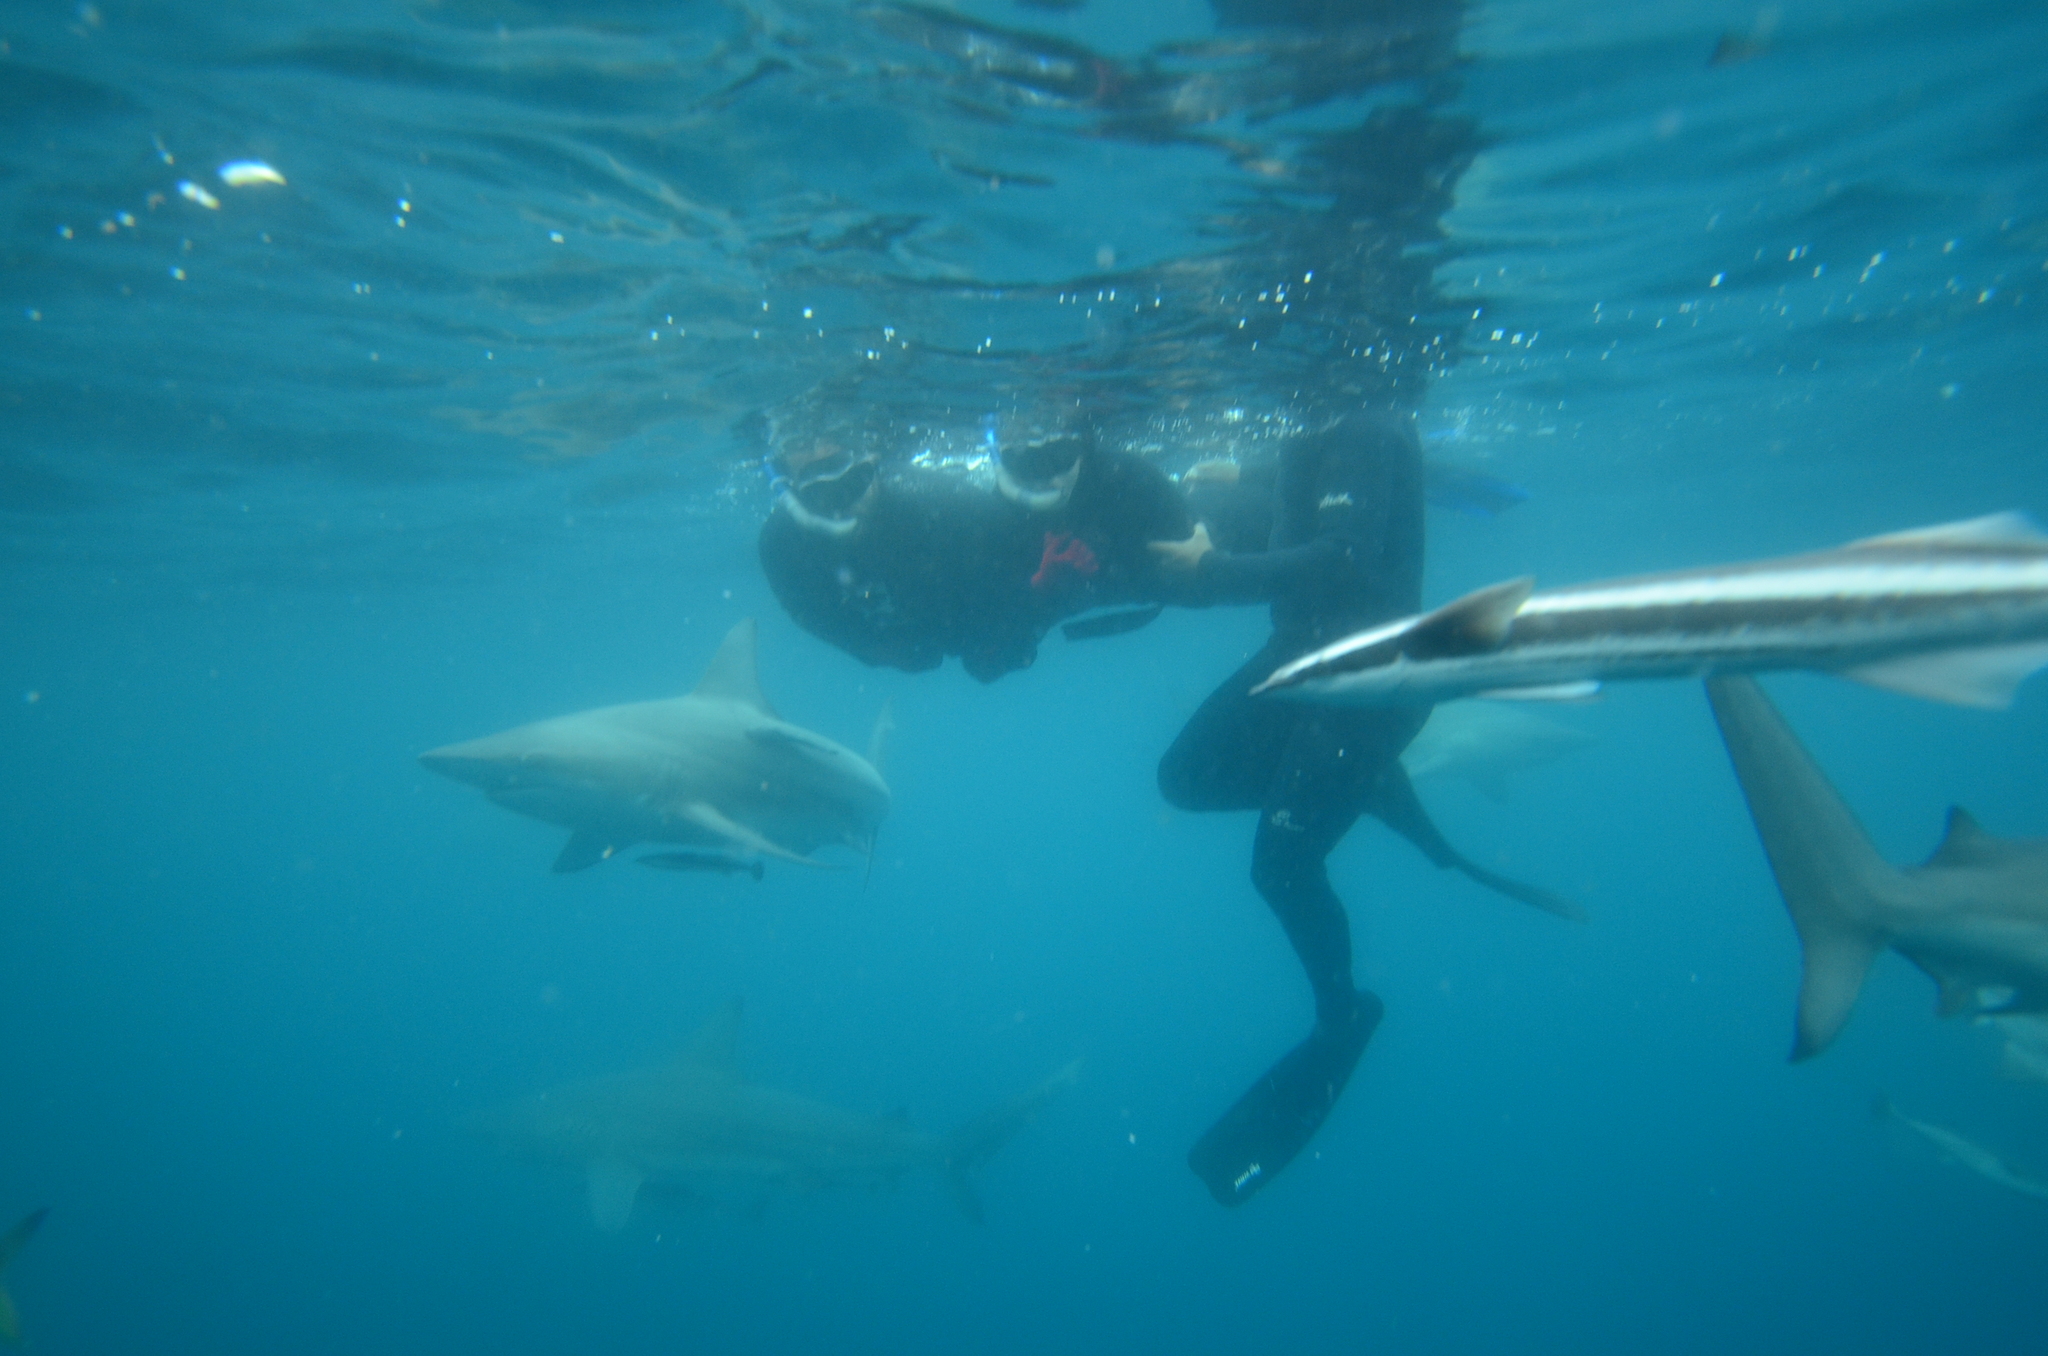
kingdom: Animalia
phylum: Chordata
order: Perciformes
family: Echeneidae
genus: Echeneis
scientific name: Echeneis naucrates
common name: Sharksucker
